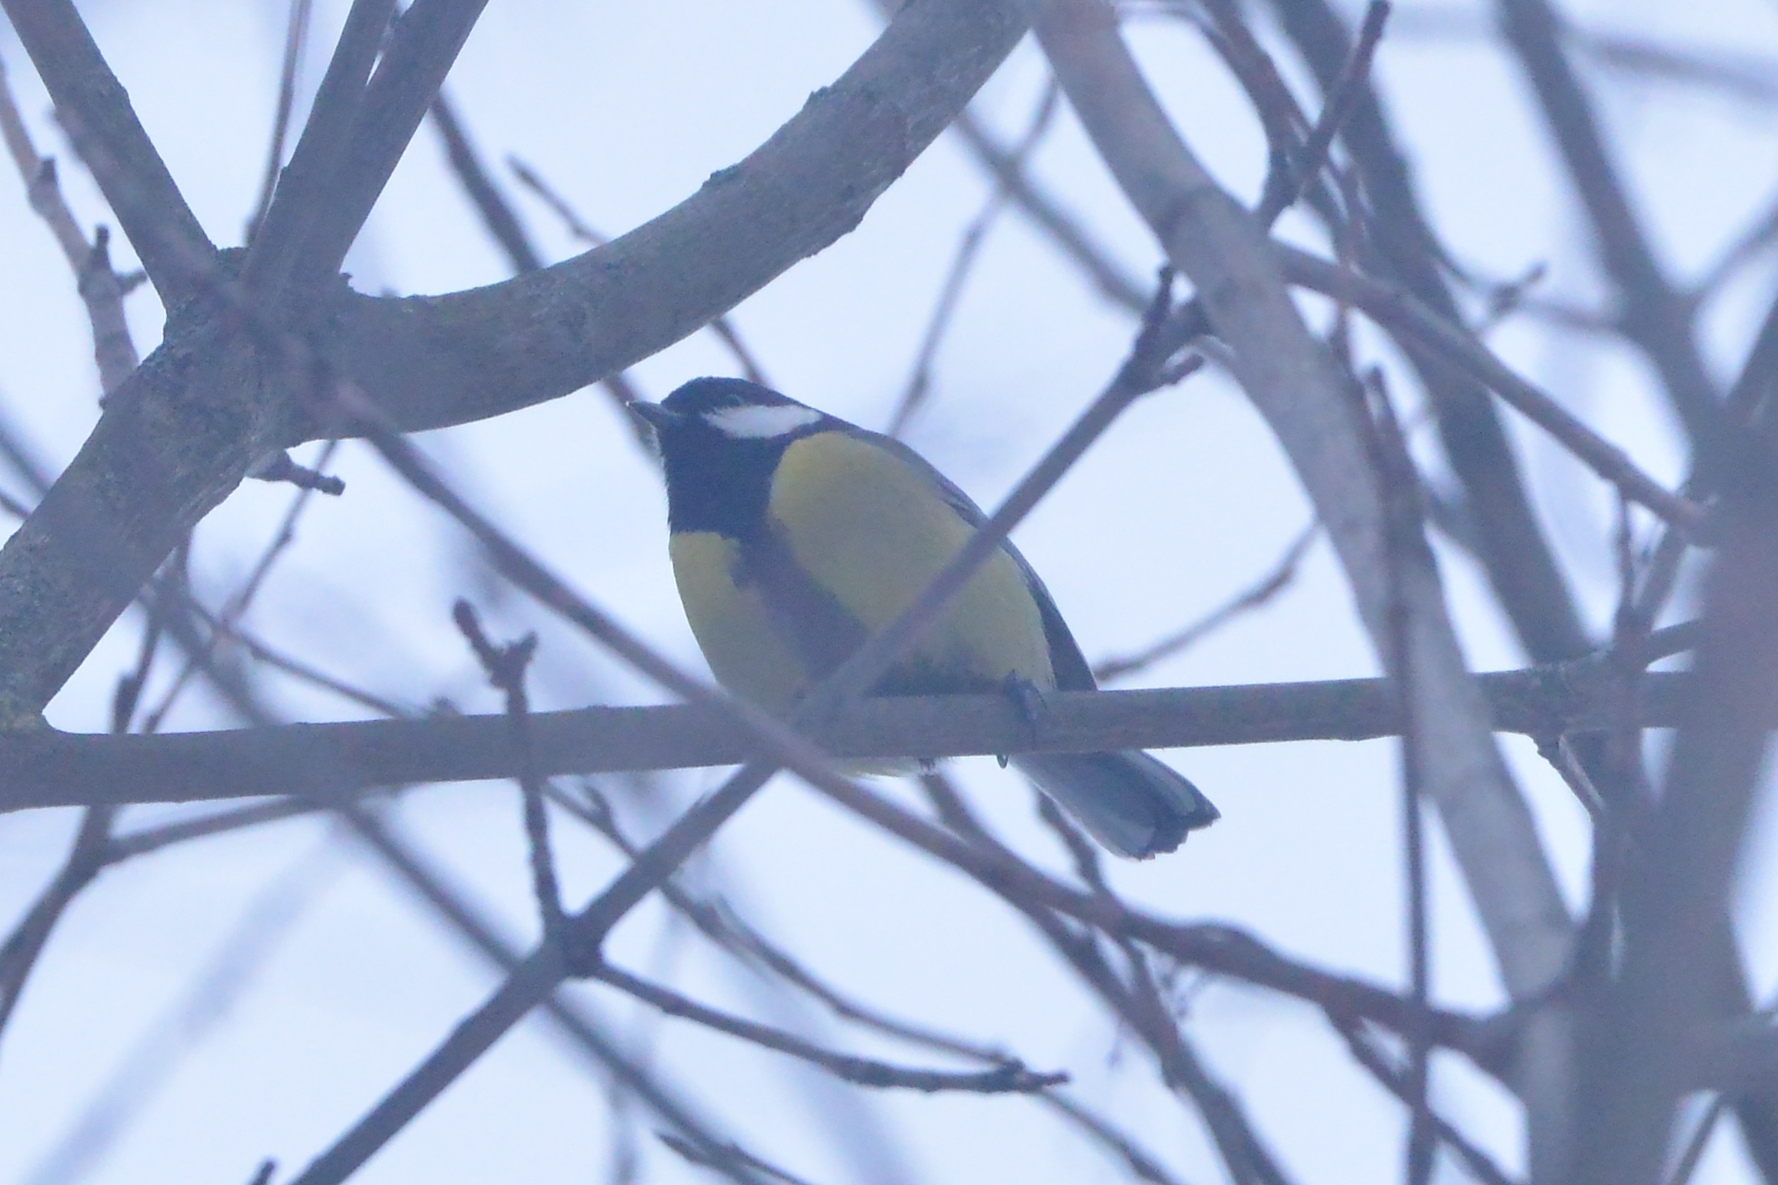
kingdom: Animalia
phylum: Chordata
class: Aves
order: Passeriformes
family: Paridae
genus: Parus
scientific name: Parus major
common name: Great tit
